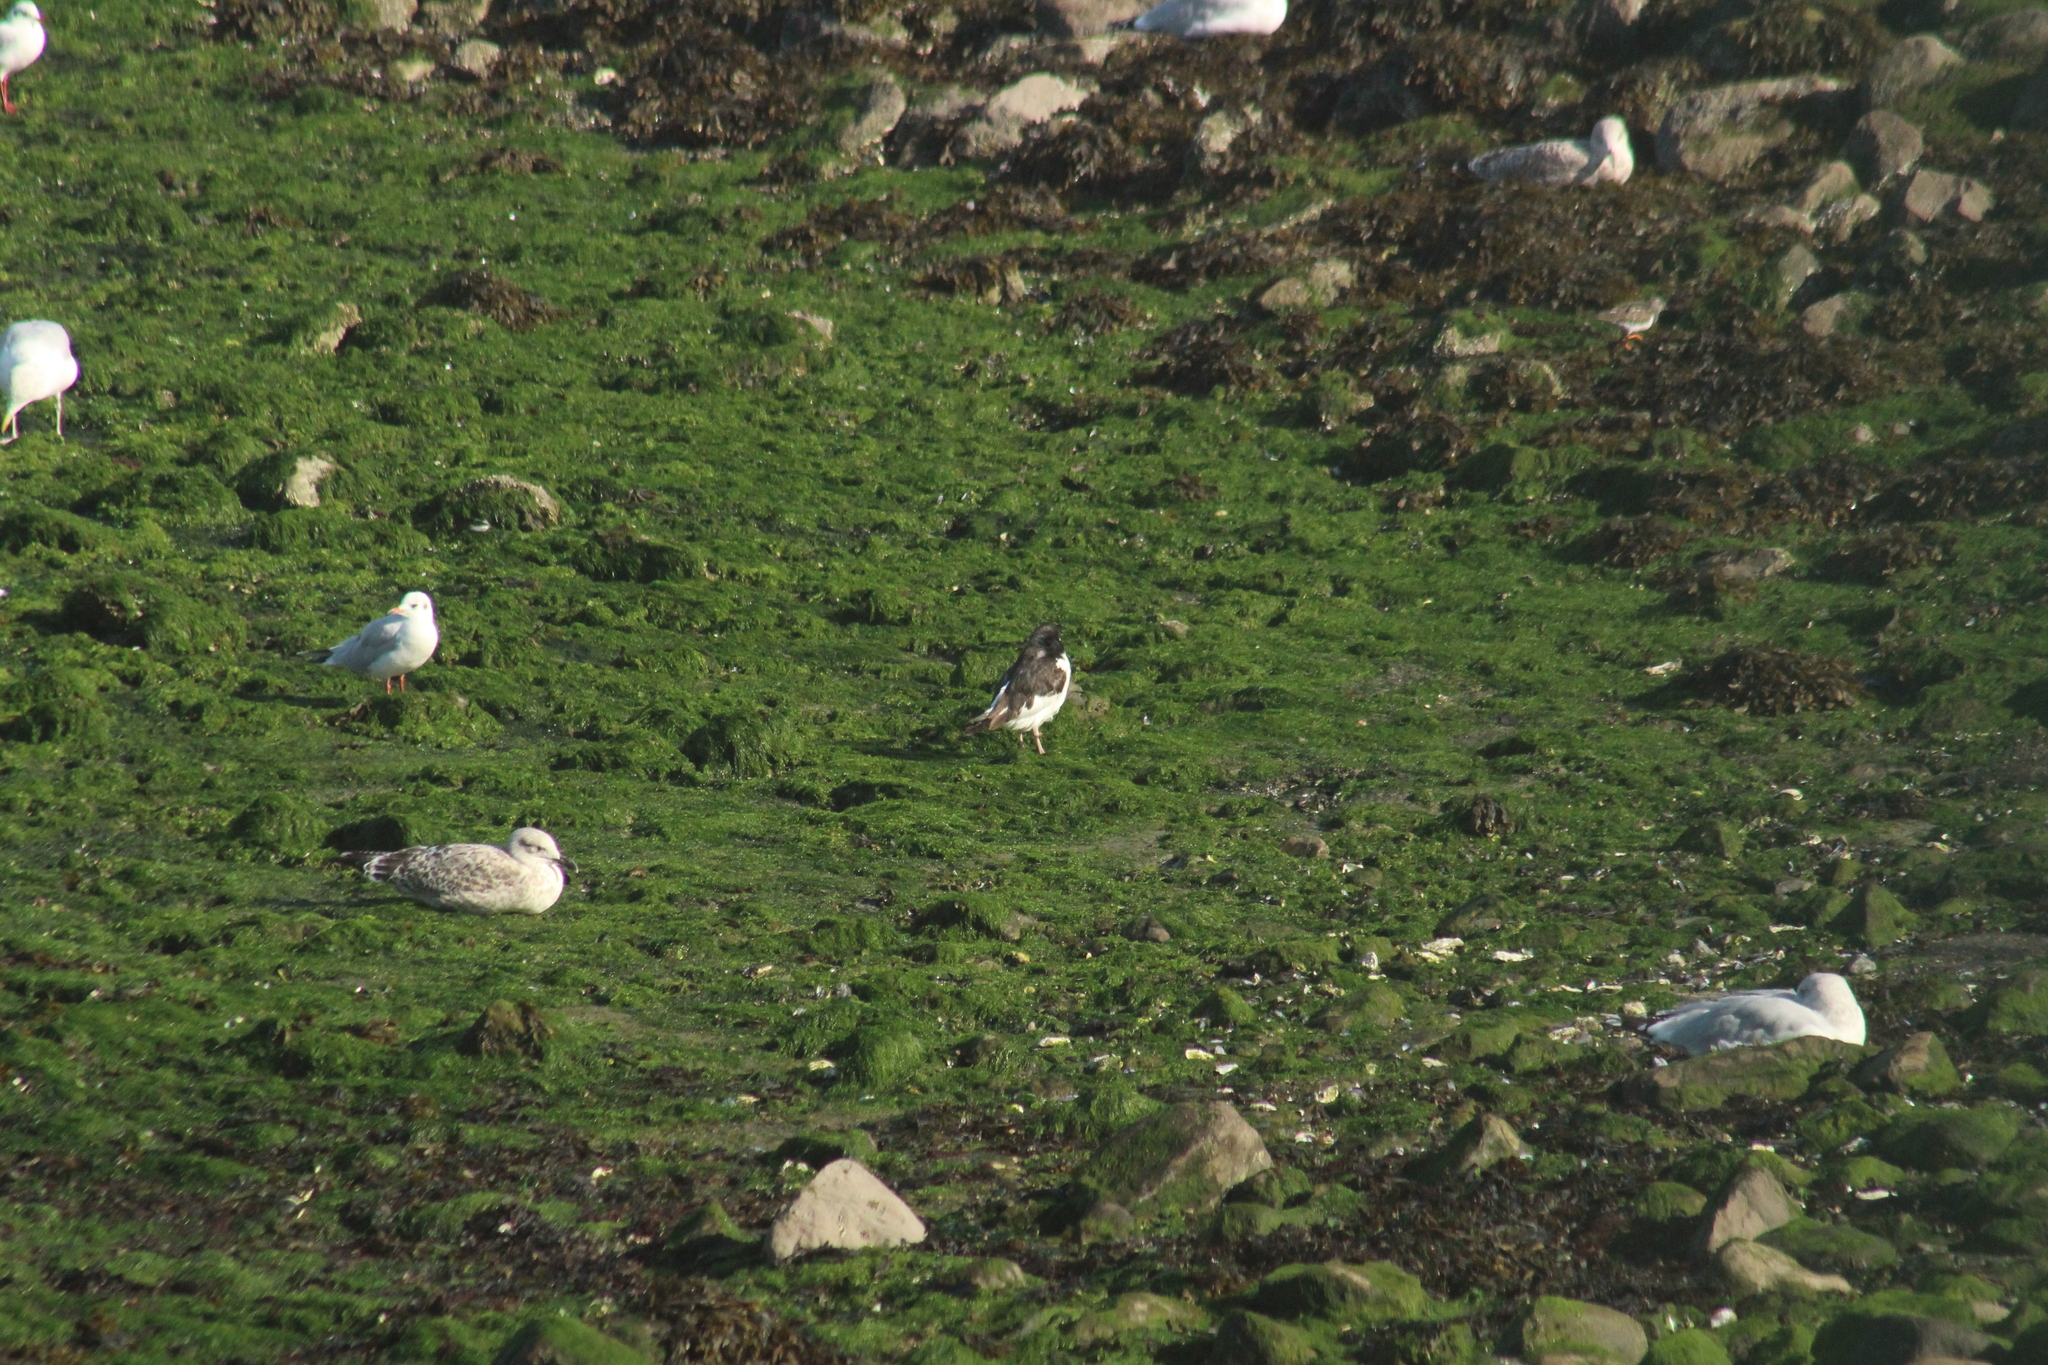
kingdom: Animalia
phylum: Chordata
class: Aves
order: Charadriiformes
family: Haematopodidae
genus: Haematopus
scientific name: Haematopus ostralegus
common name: Eurasian oystercatcher
